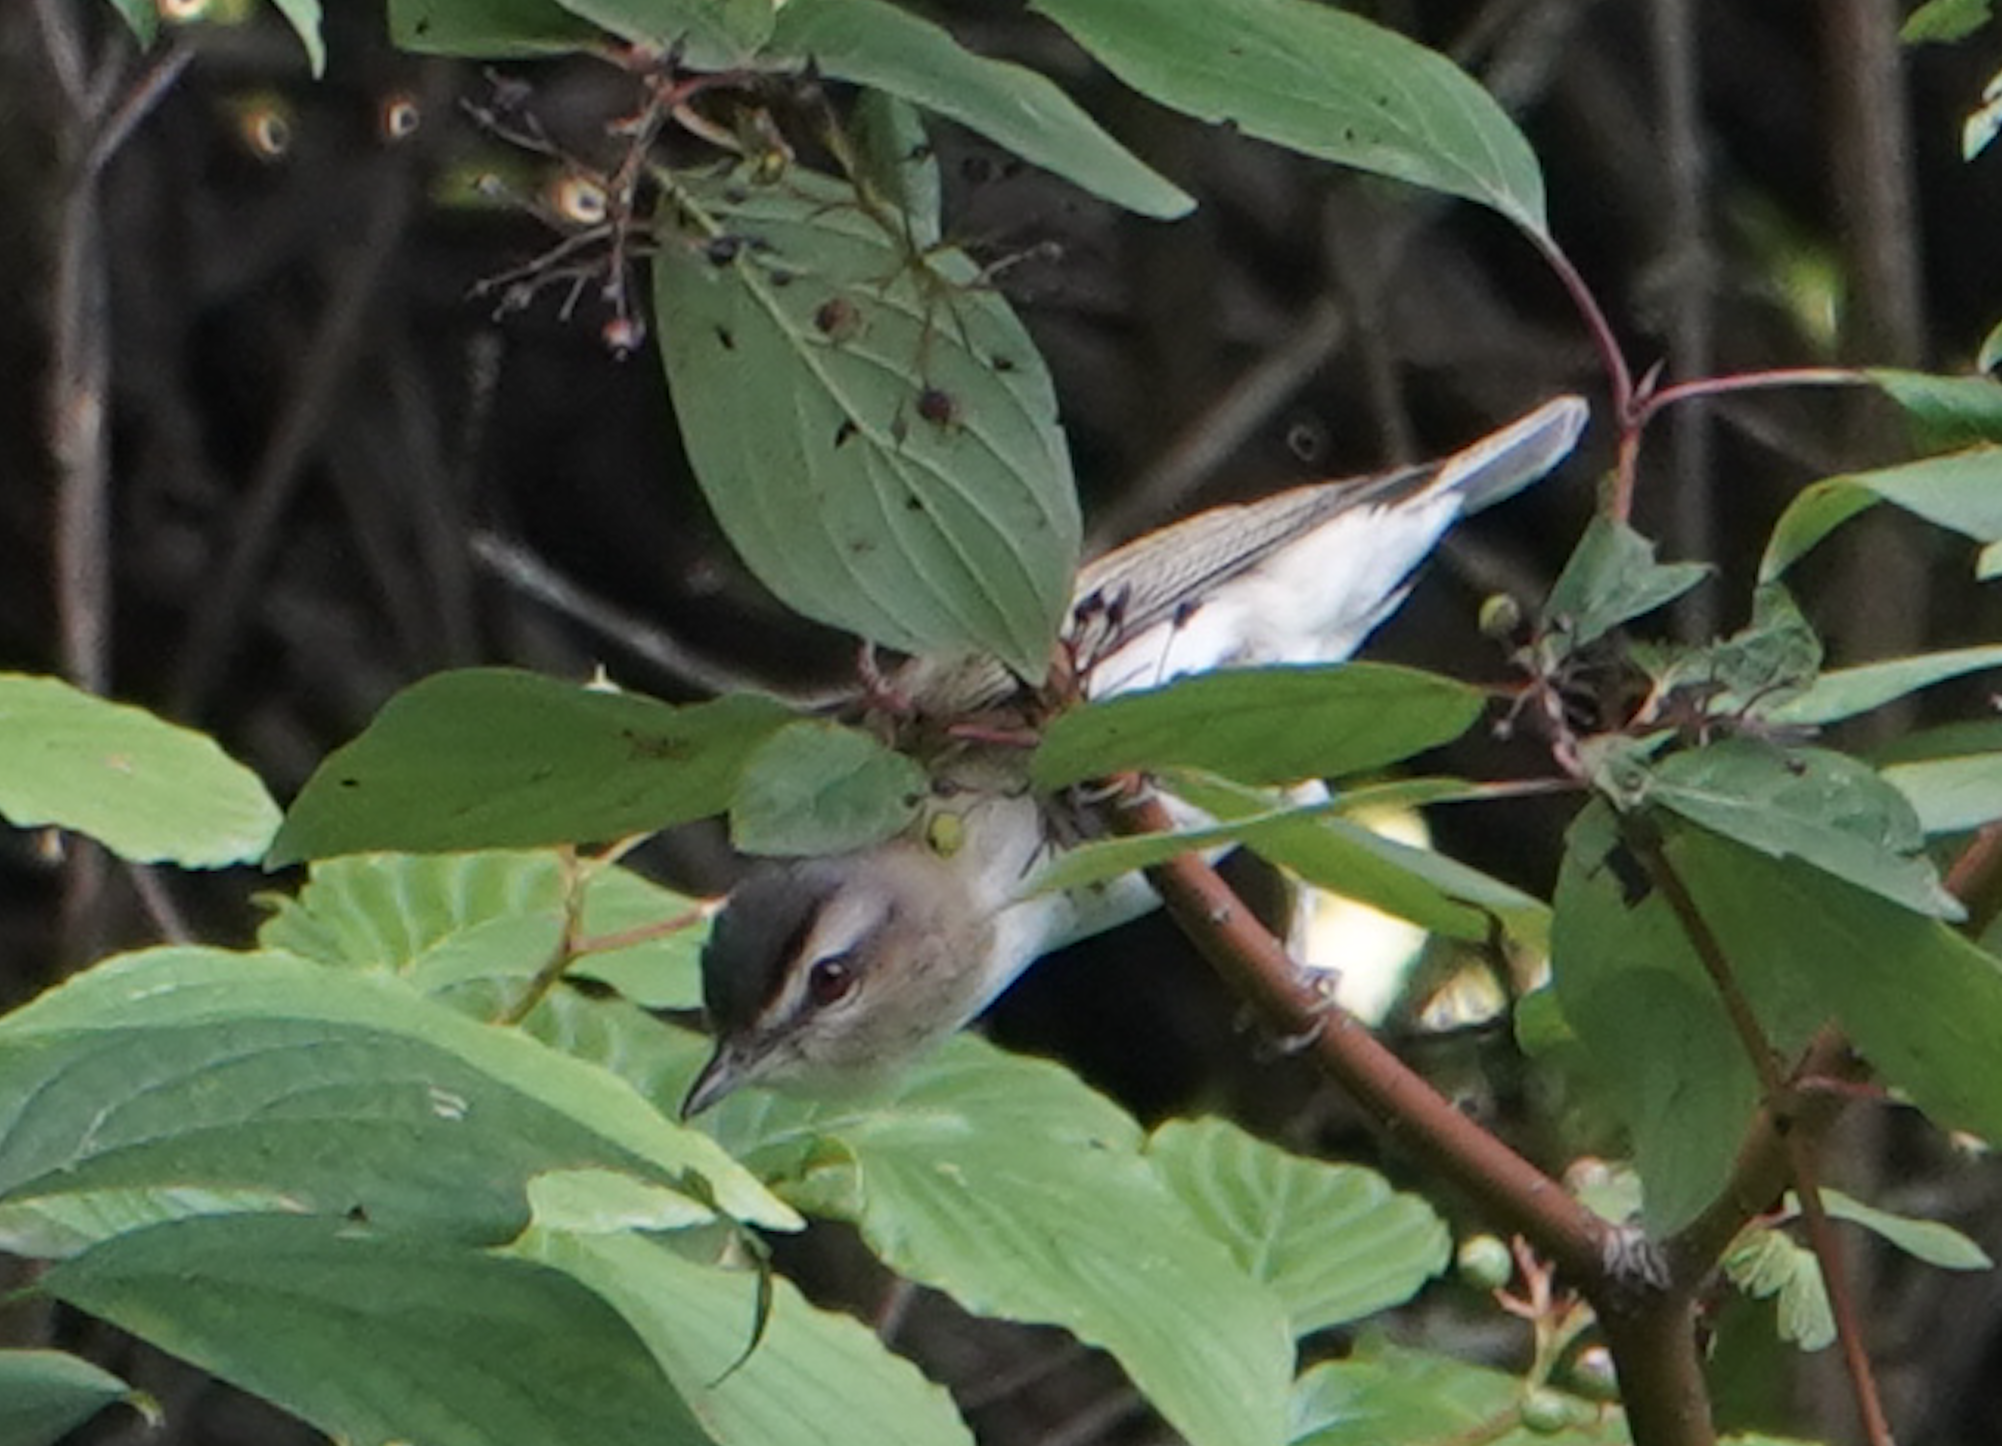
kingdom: Animalia
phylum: Chordata
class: Aves
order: Passeriformes
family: Vireonidae
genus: Vireo
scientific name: Vireo olivaceus
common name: Red-eyed vireo
